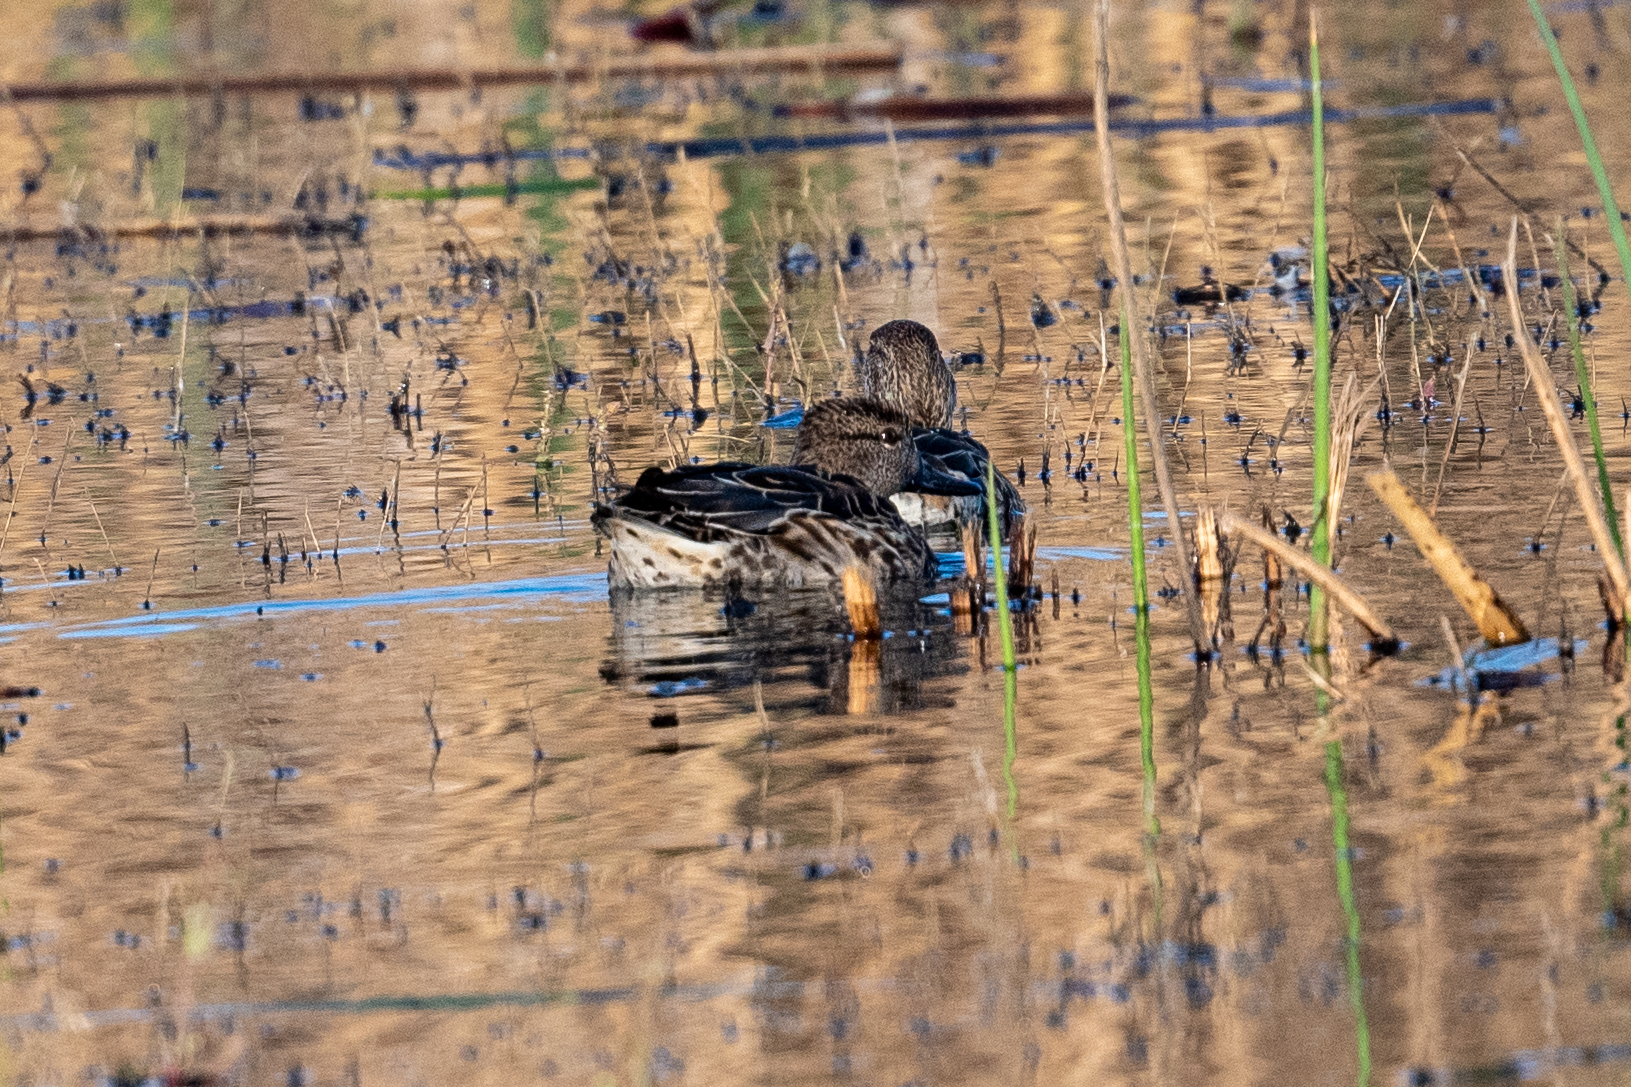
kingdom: Animalia
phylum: Chordata
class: Aves
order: Anseriformes
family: Anatidae
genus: Anas
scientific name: Anas crecca
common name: Eurasian teal
